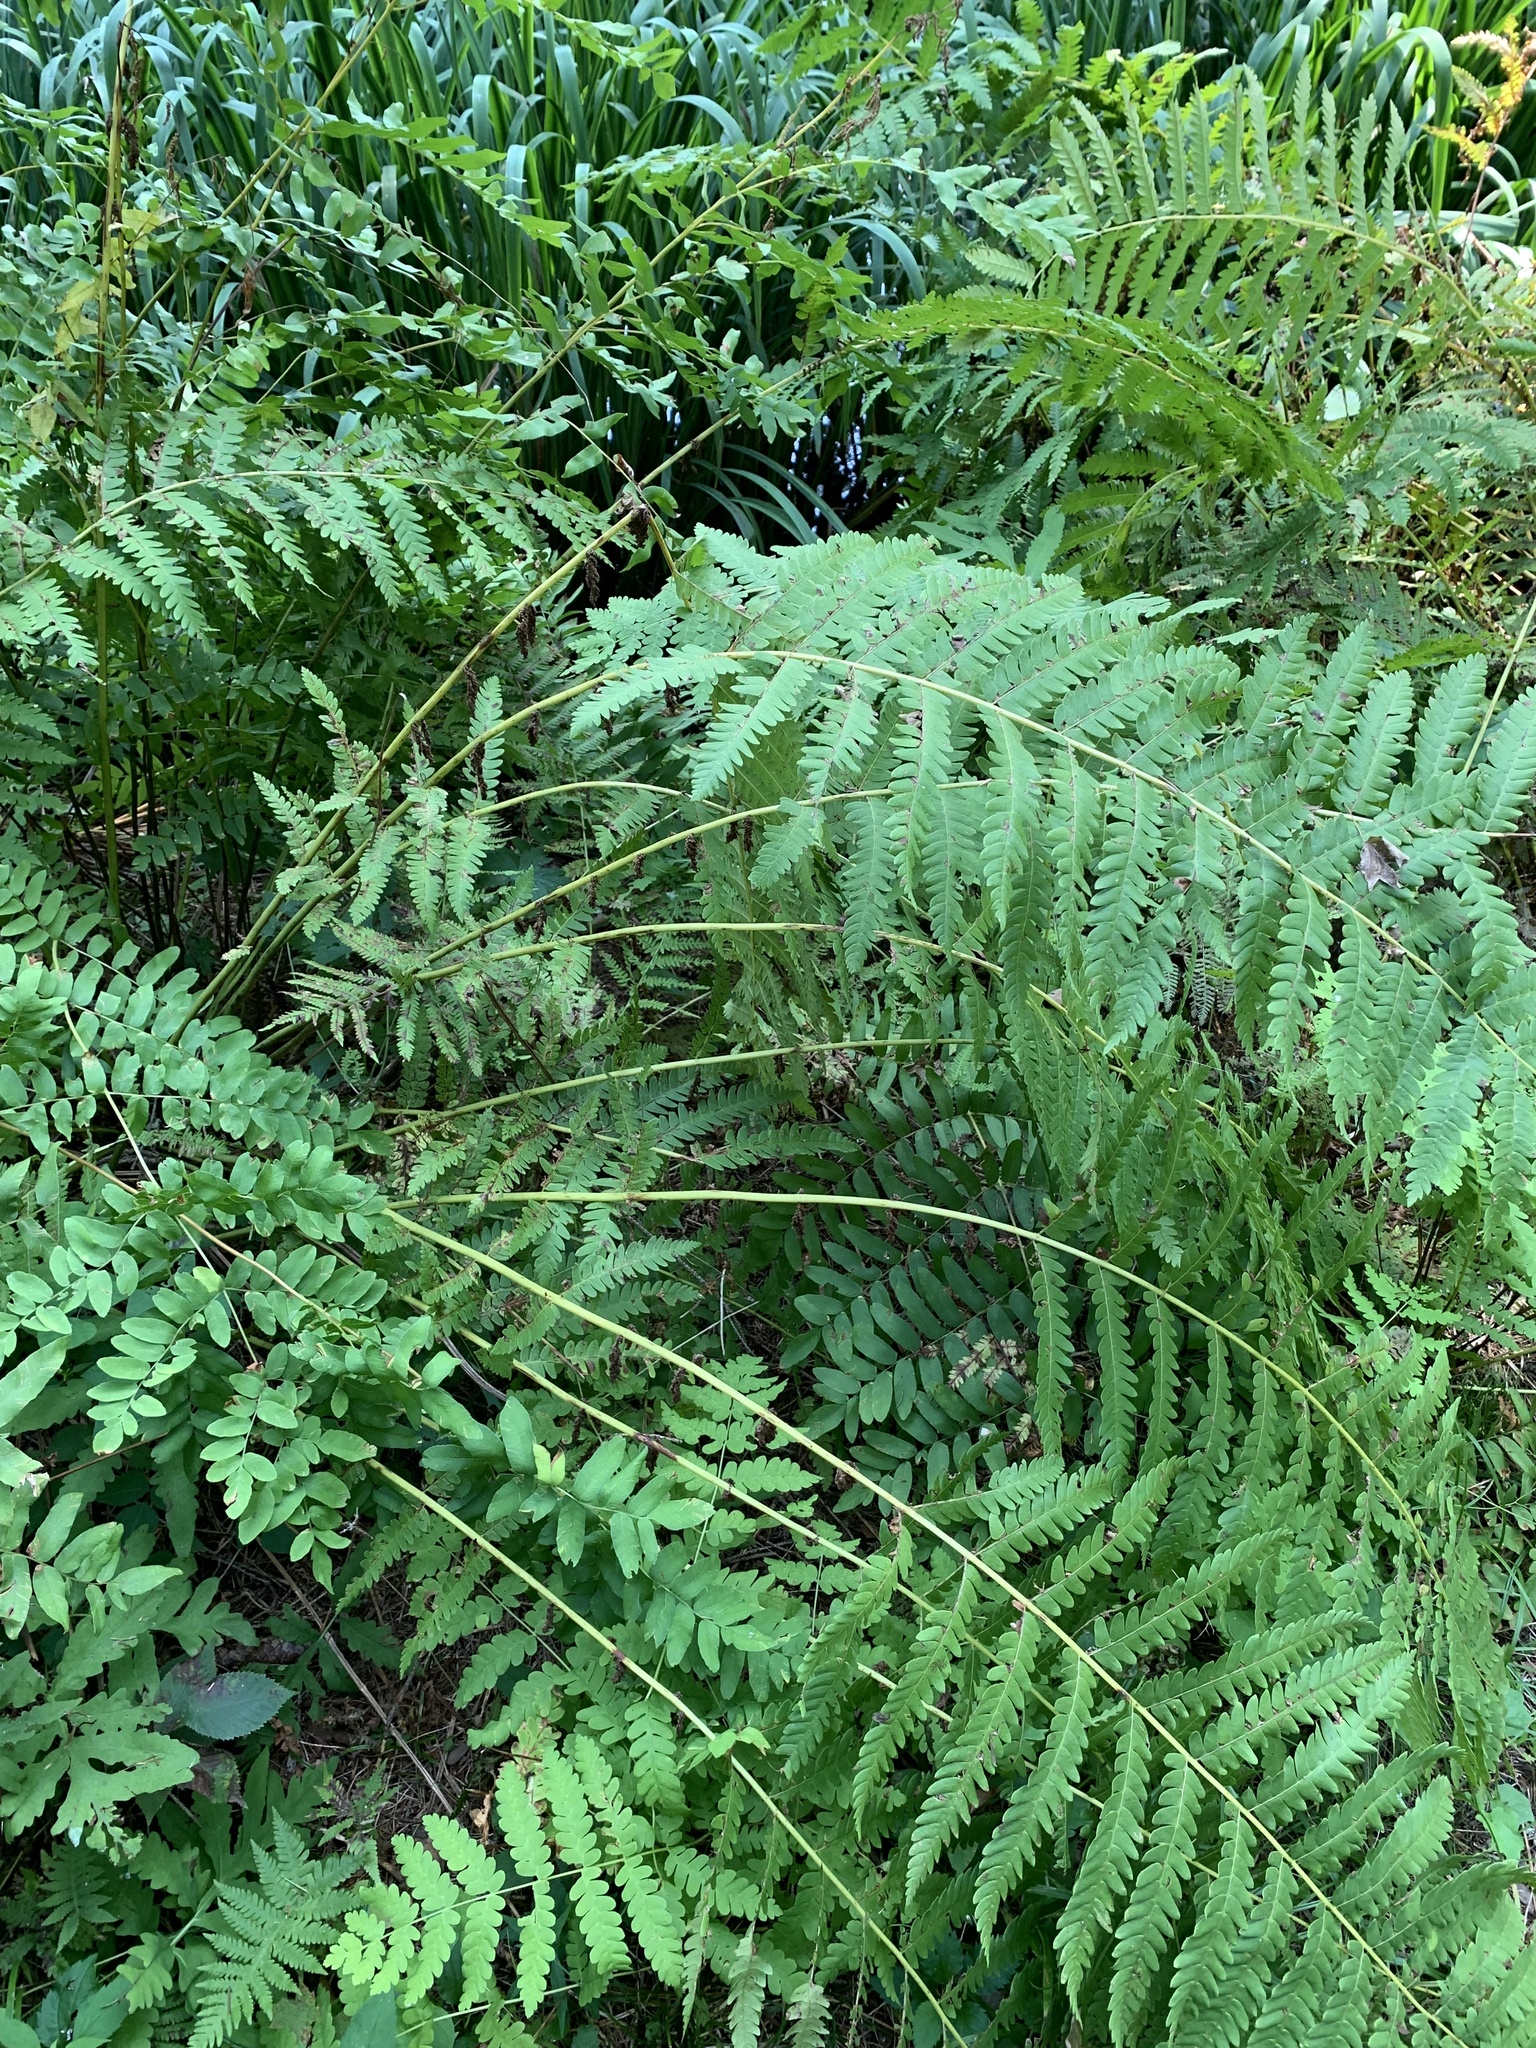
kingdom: Plantae
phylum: Tracheophyta
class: Polypodiopsida
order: Osmundales
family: Osmundaceae
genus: Claytosmunda
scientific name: Claytosmunda claytoniana
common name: Clayton's fern
